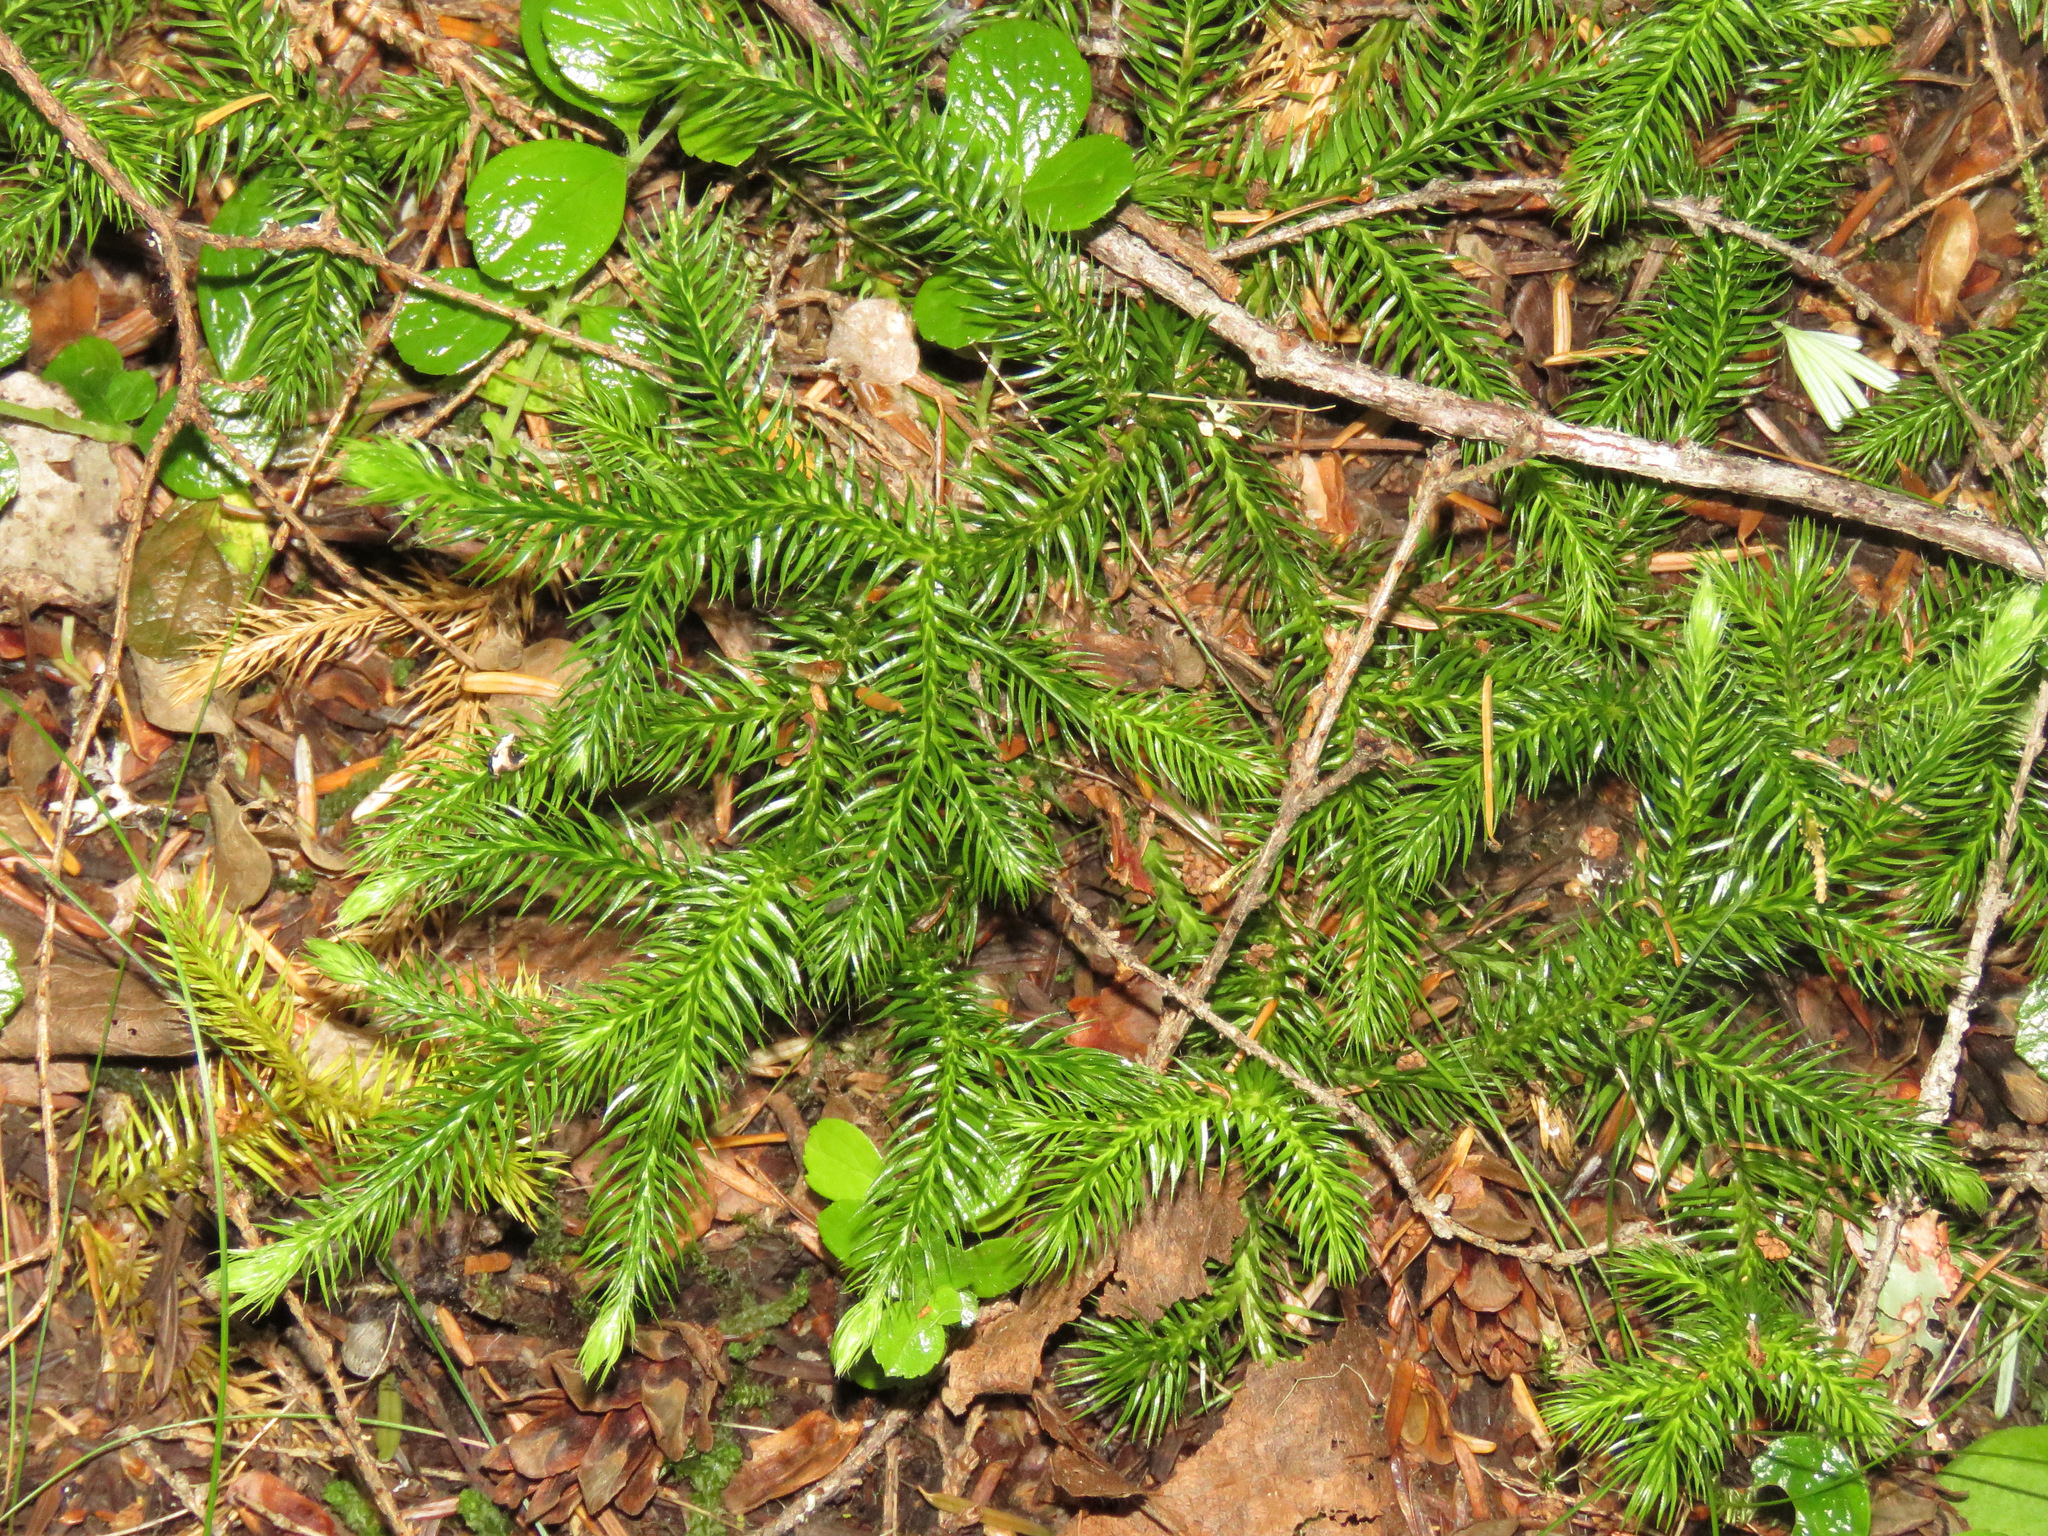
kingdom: Plantae
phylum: Tracheophyta
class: Lycopodiopsida
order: Lycopodiales
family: Lycopodiaceae
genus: Lycopodium
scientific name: Lycopodium clavatum
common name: Stag's-horn clubmoss
